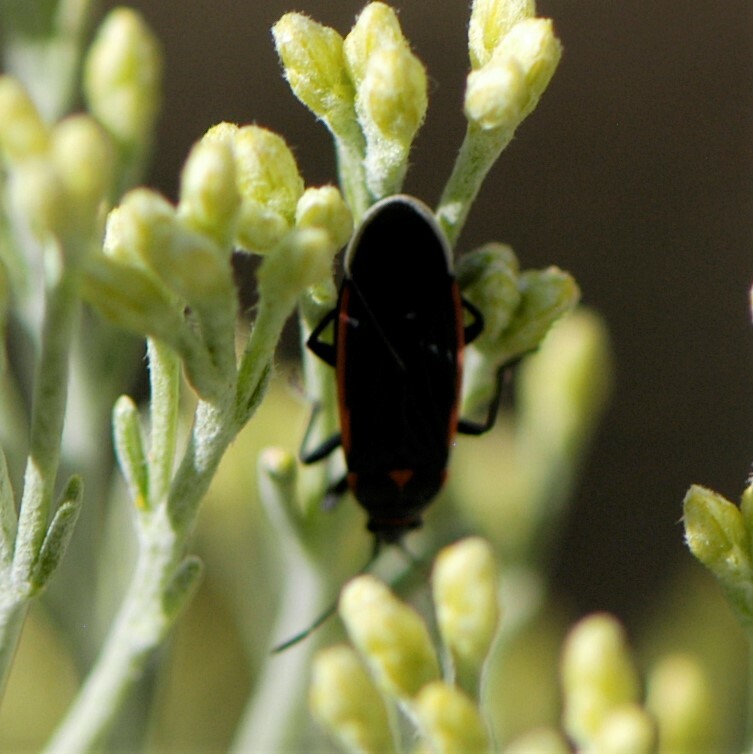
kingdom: Animalia
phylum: Arthropoda
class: Insecta
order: Hemiptera
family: Lygaeidae
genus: Melacoryphus
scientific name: Melacoryphus lateralis
